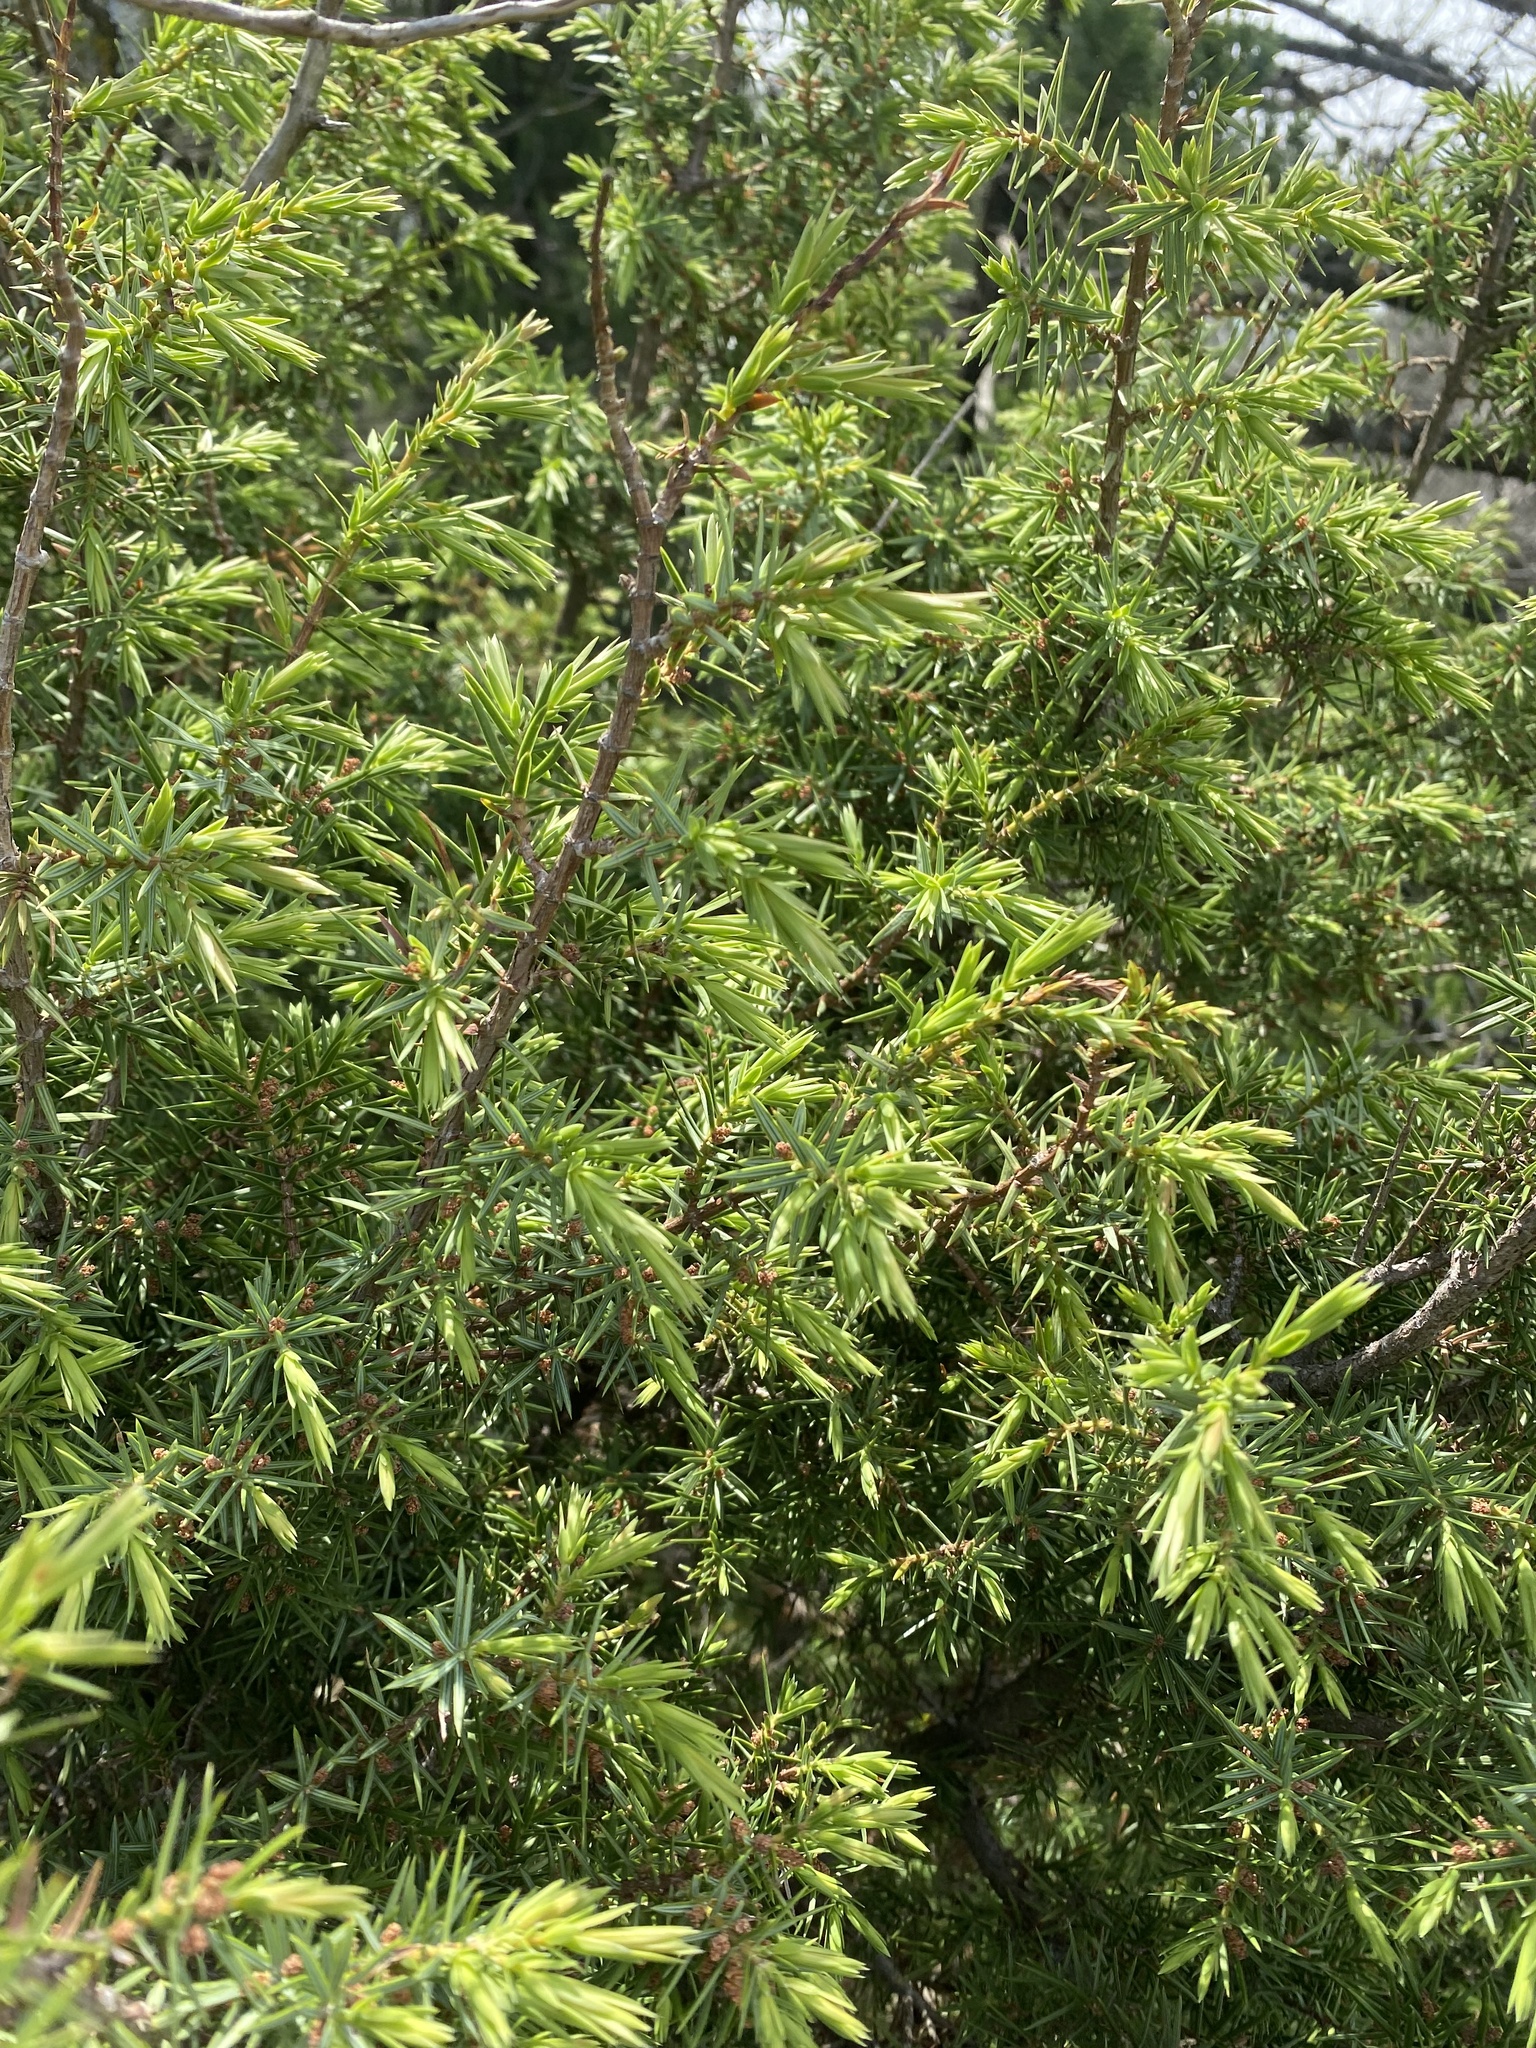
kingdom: Plantae
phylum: Tracheophyta
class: Pinopsida
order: Pinales
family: Cupressaceae
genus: Juniperus
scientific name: Juniperus oxycedrus
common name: Prickly juniper
